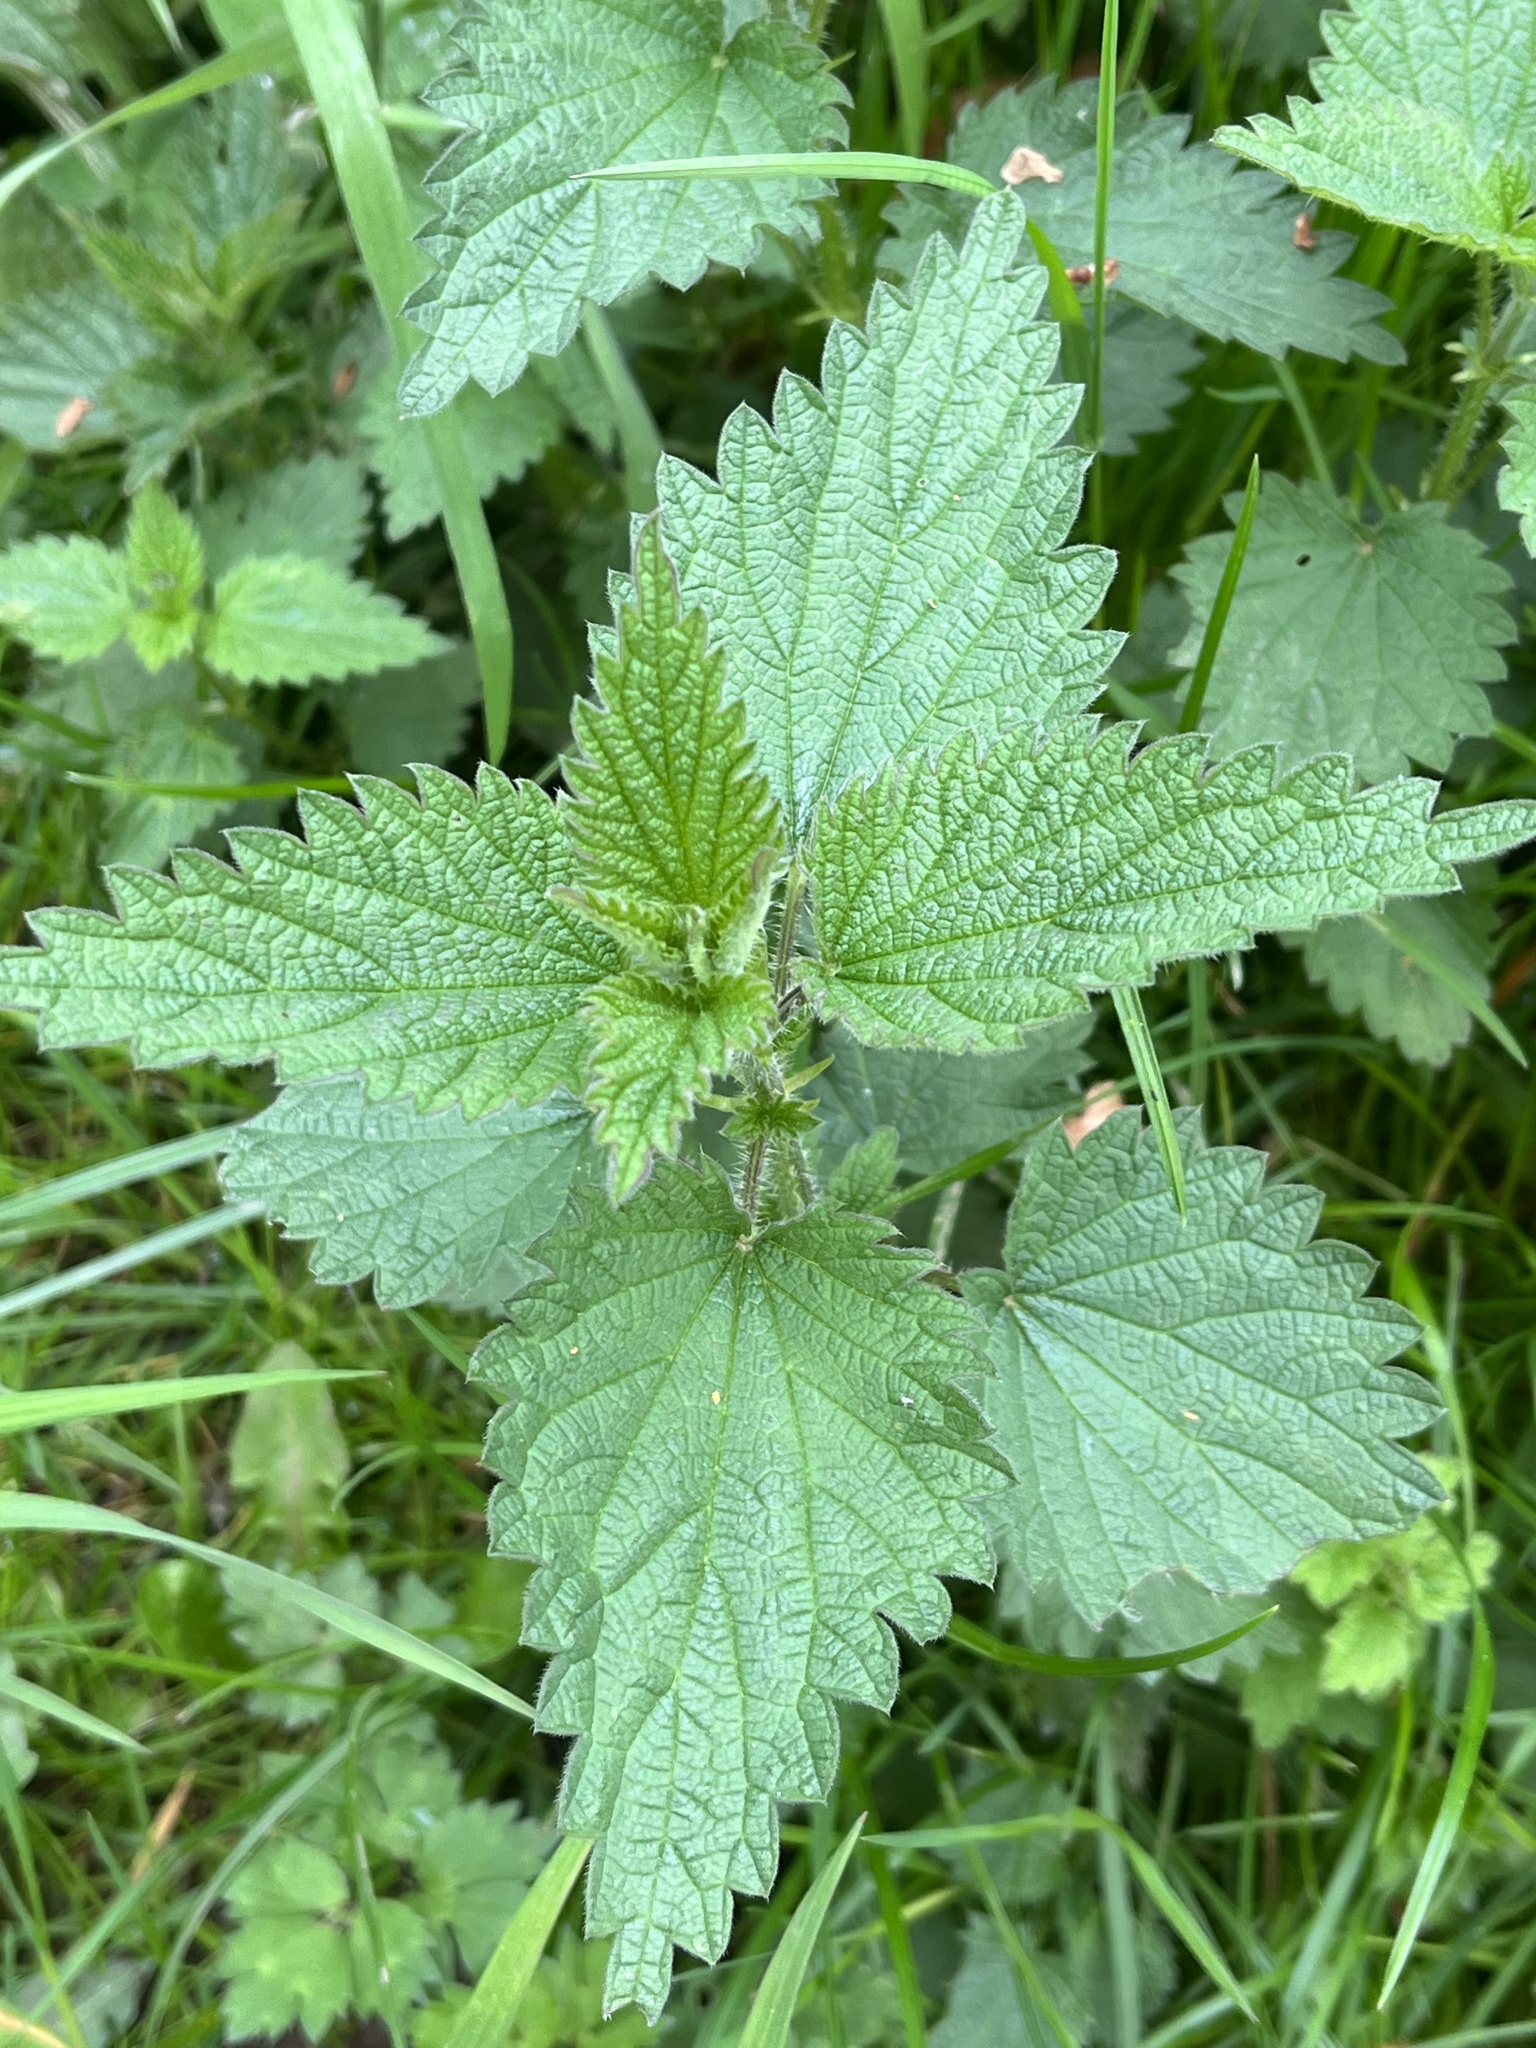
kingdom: Plantae
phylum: Tracheophyta
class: Magnoliopsida
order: Rosales
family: Urticaceae
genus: Urtica
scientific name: Urtica dioica
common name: Common nettle
